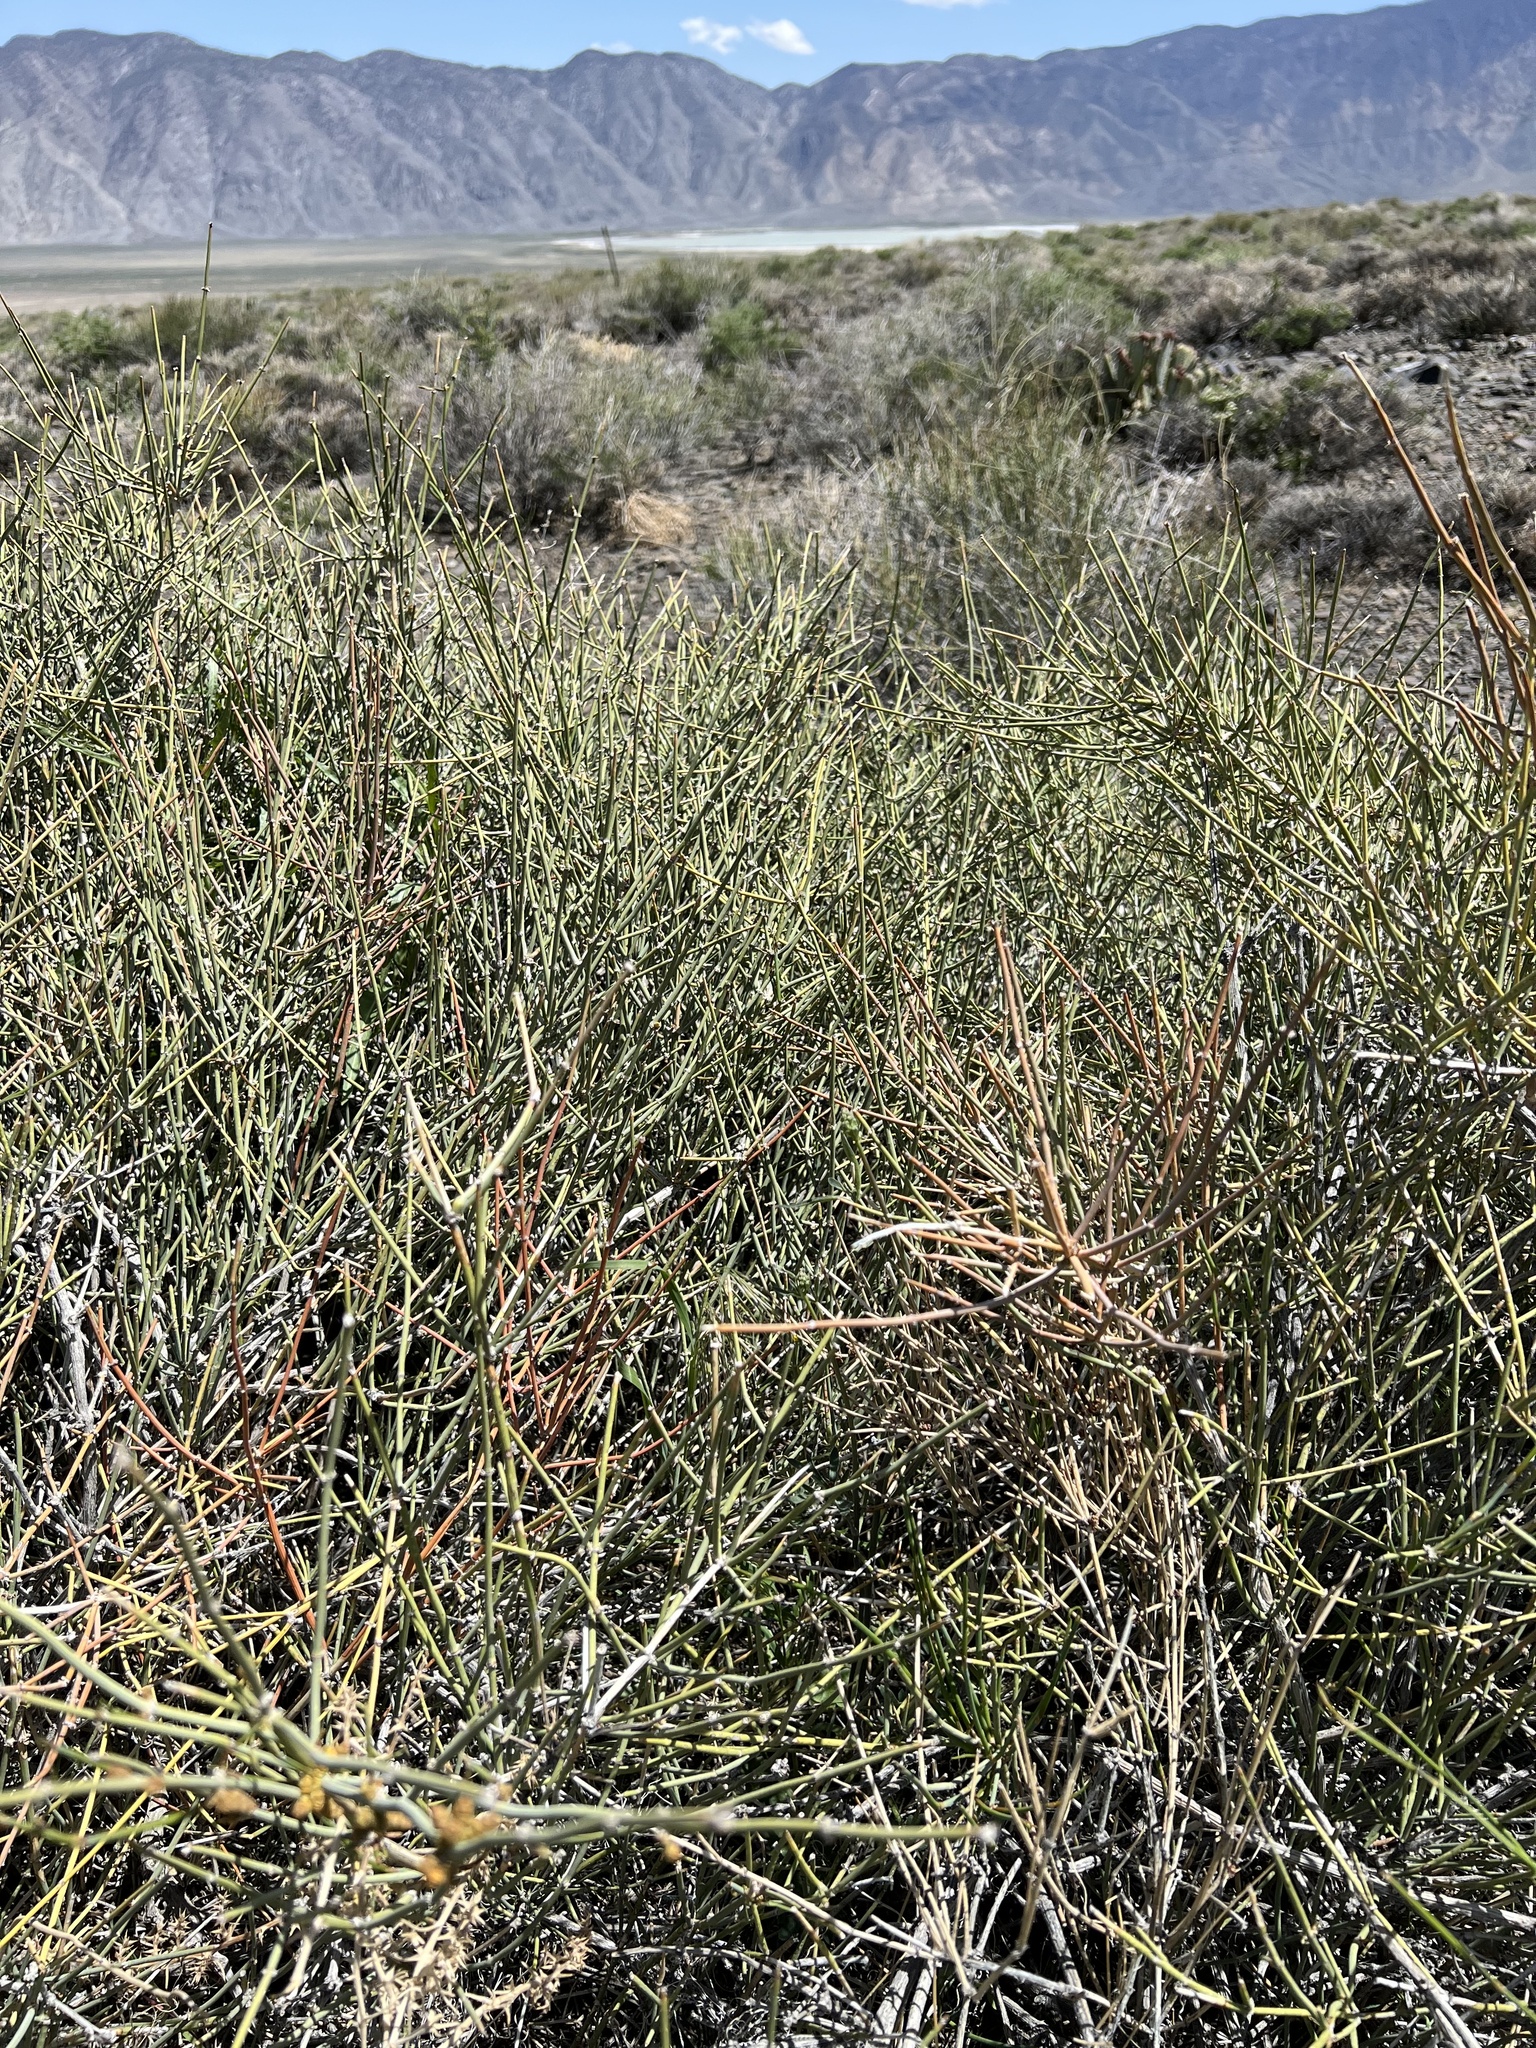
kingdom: Plantae
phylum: Tracheophyta
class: Gnetopsida
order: Ephedrales
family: Ephedraceae
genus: Ephedra
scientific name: Ephedra nevadensis
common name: Gray ephedra
